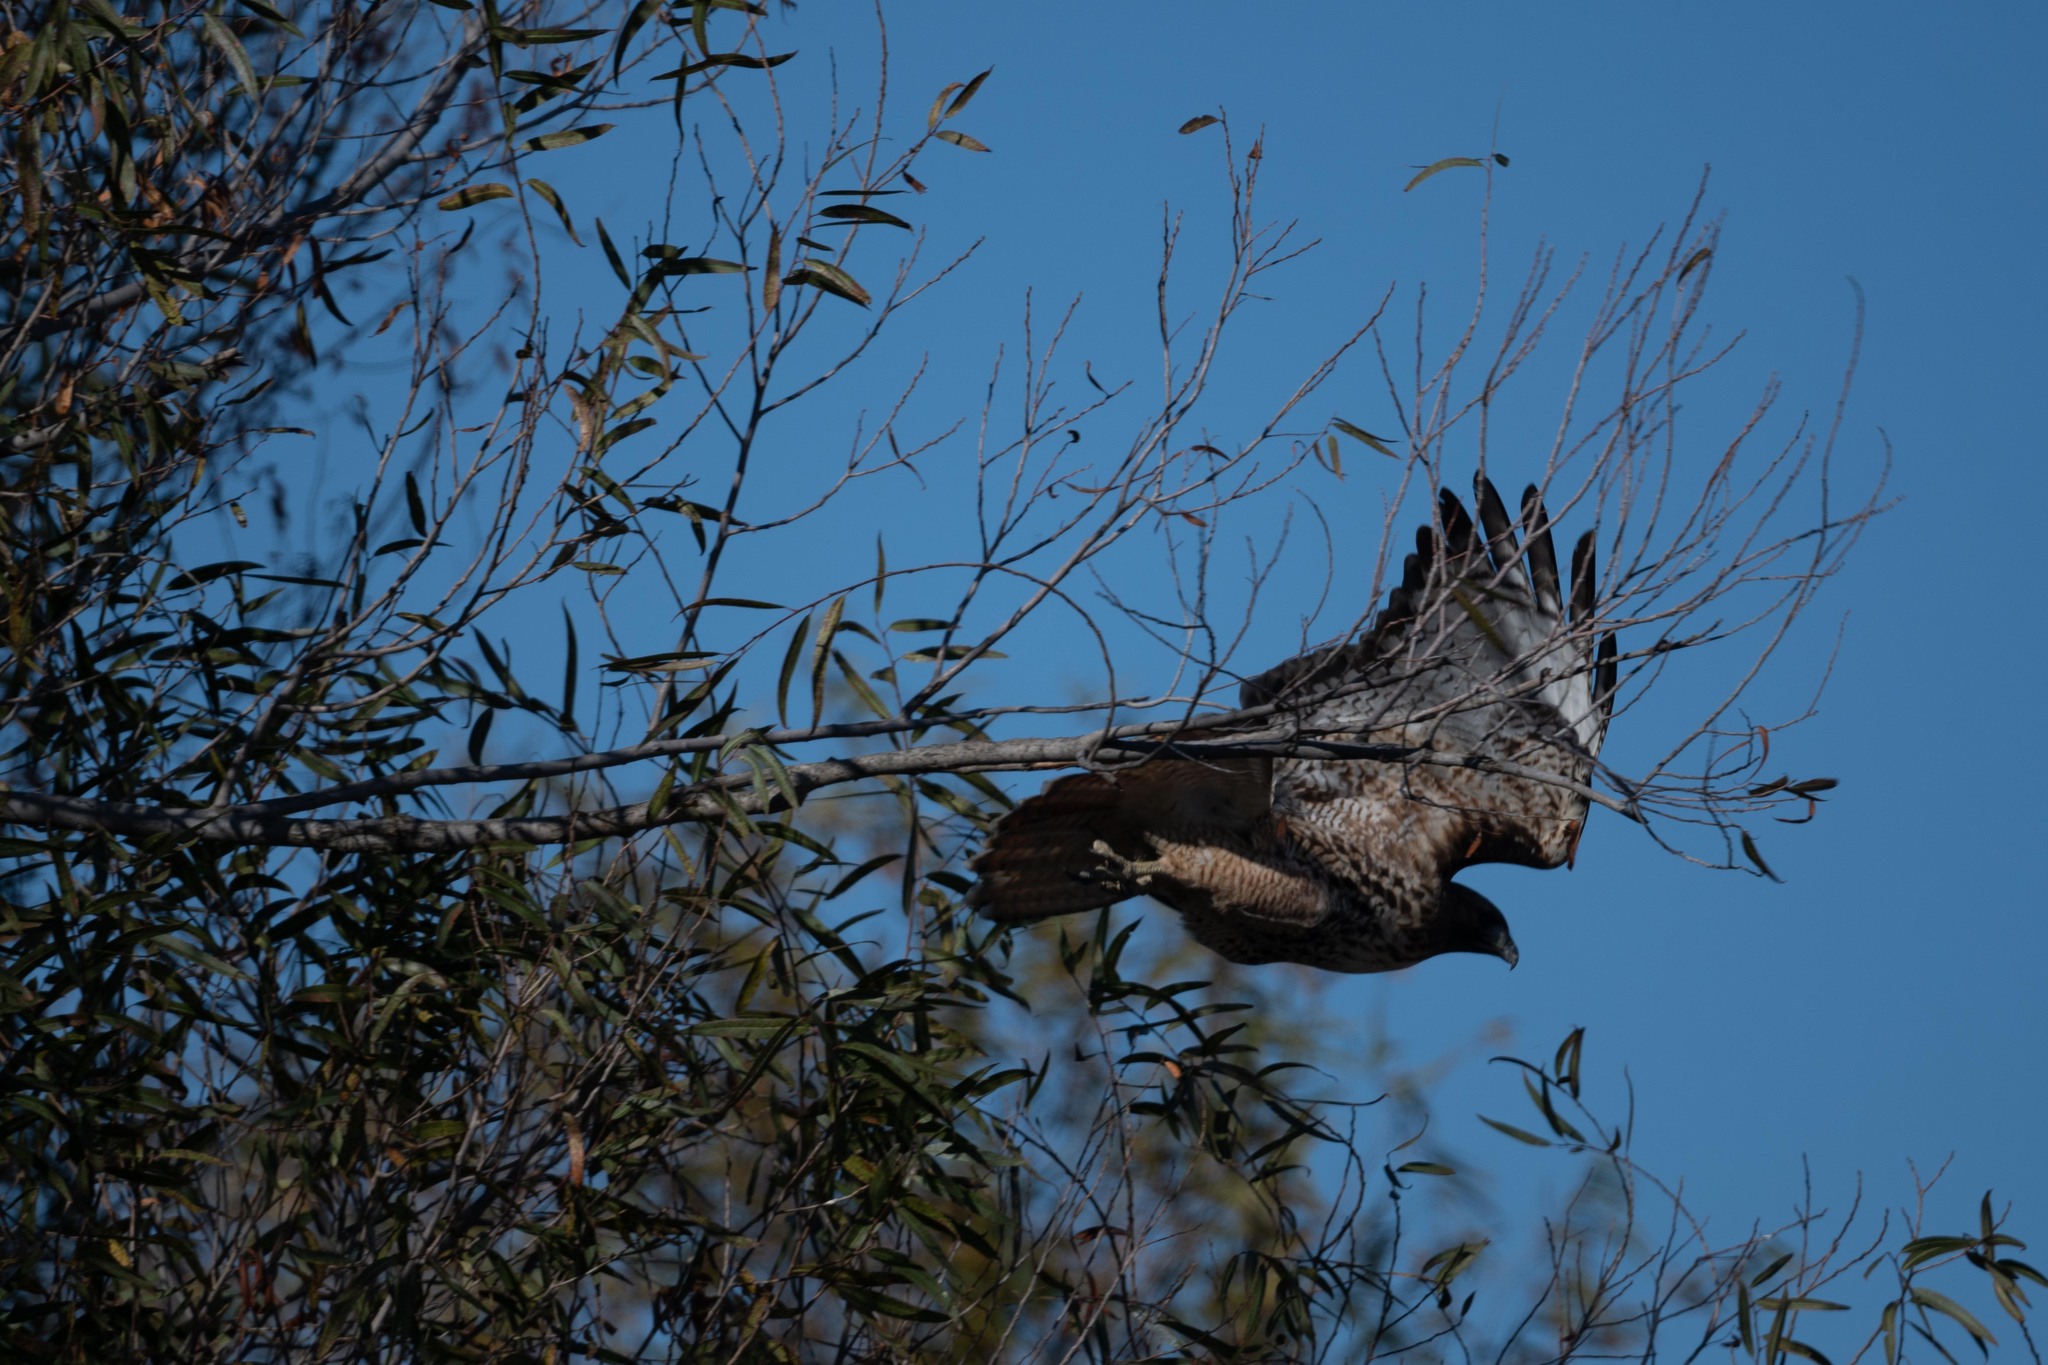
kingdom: Animalia
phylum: Chordata
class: Aves
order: Accipitriformes
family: Accipitridae
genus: Buteo
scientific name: Buteo jamaicensis
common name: Red-tailed hawk
